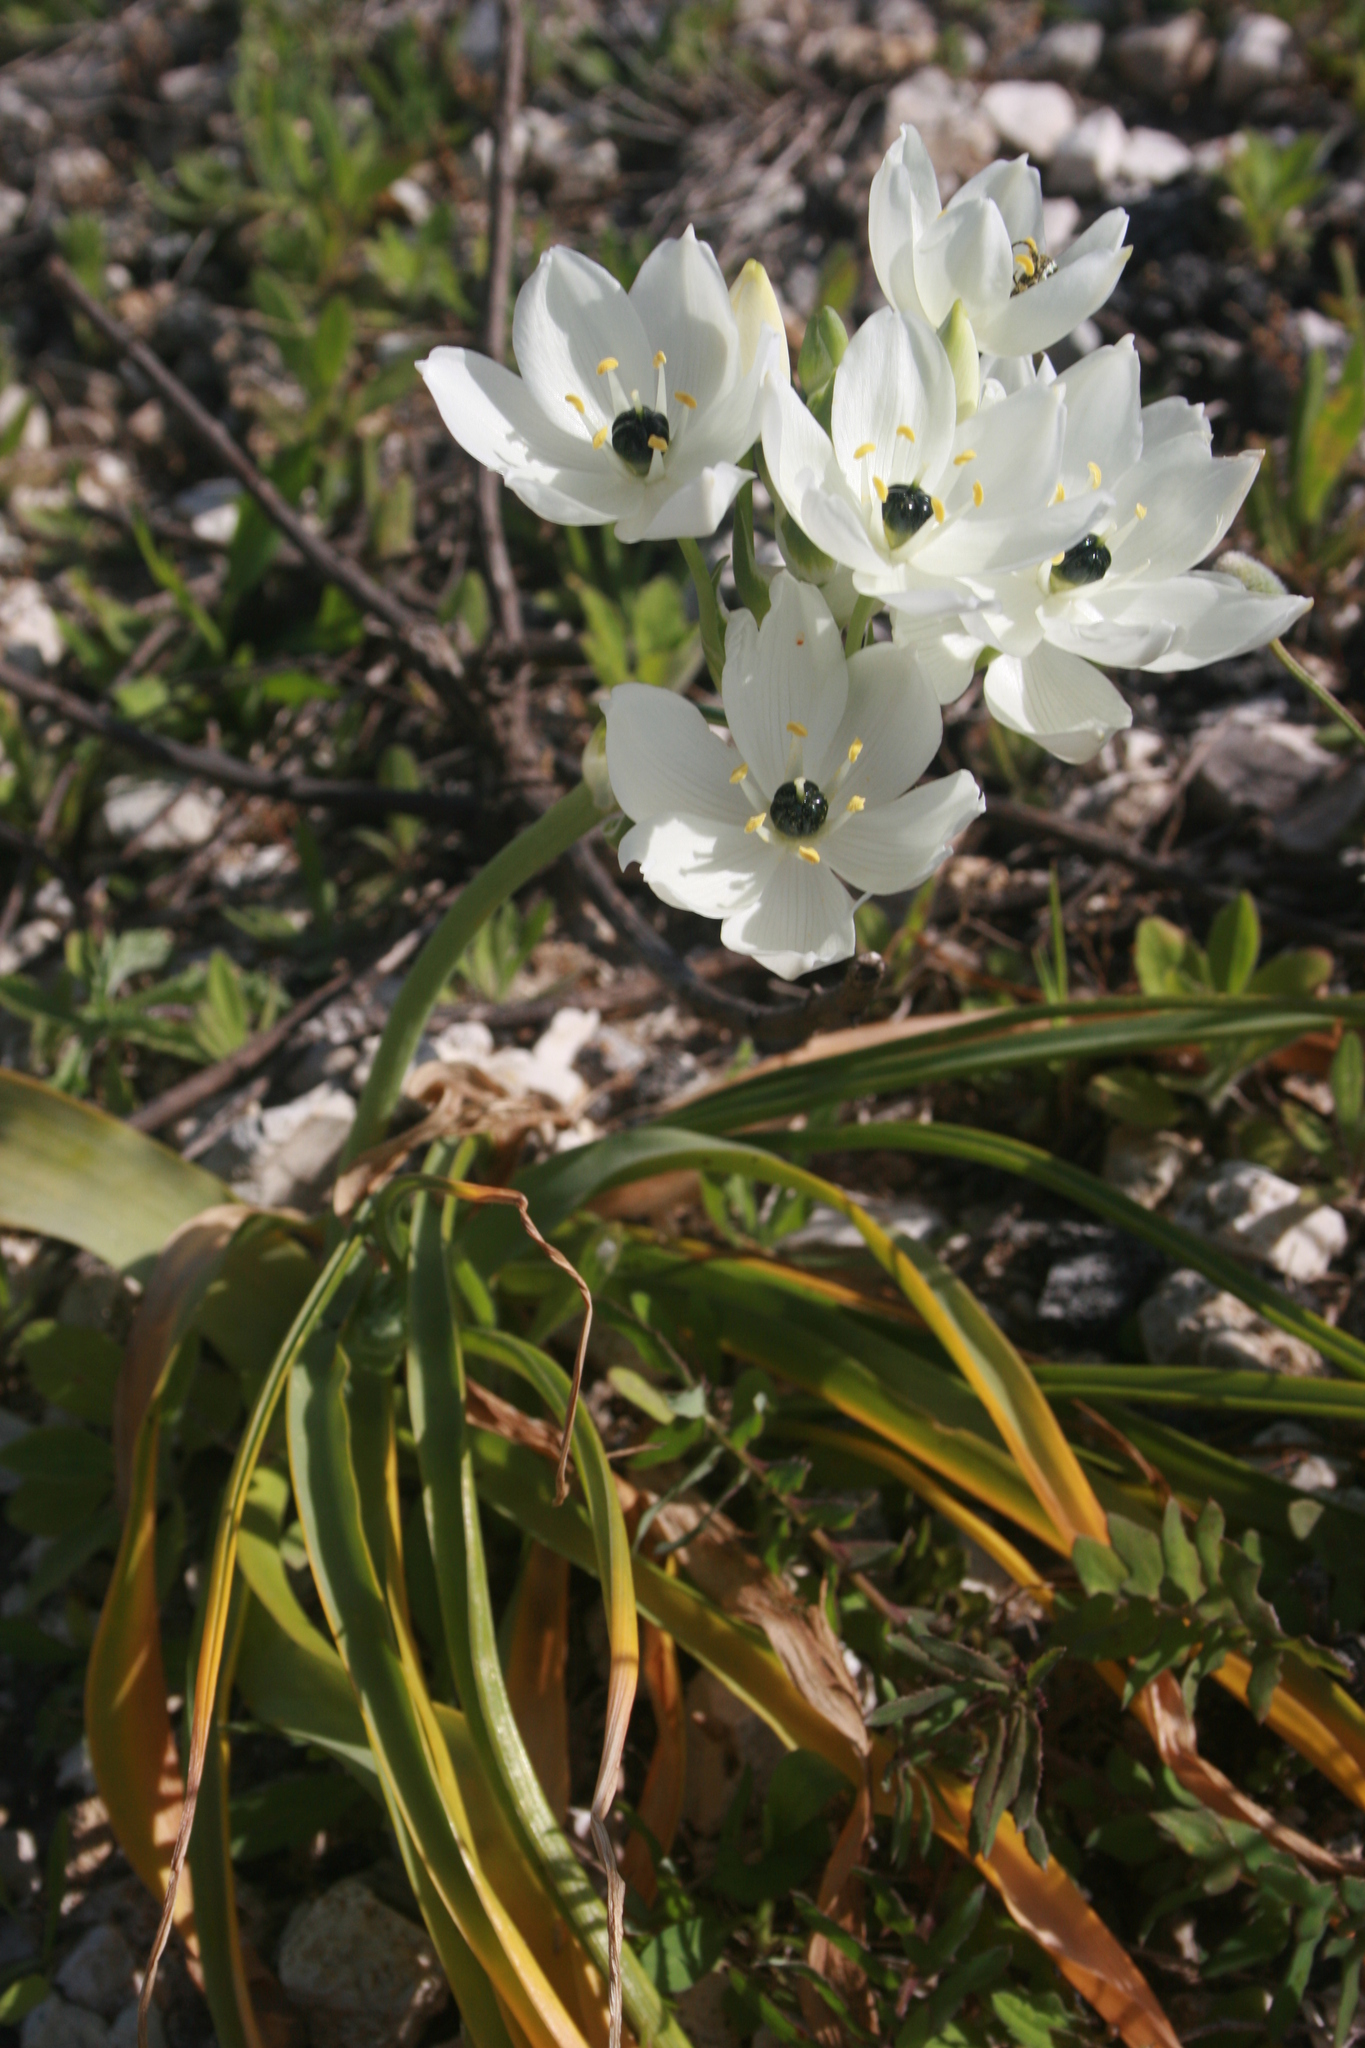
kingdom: Plantae
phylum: Tracheophyta
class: Liliopsida
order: Asparagales
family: Asparagaceae
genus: Ornithogalum
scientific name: Ornithogalum arabicum
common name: Arabian starflower
